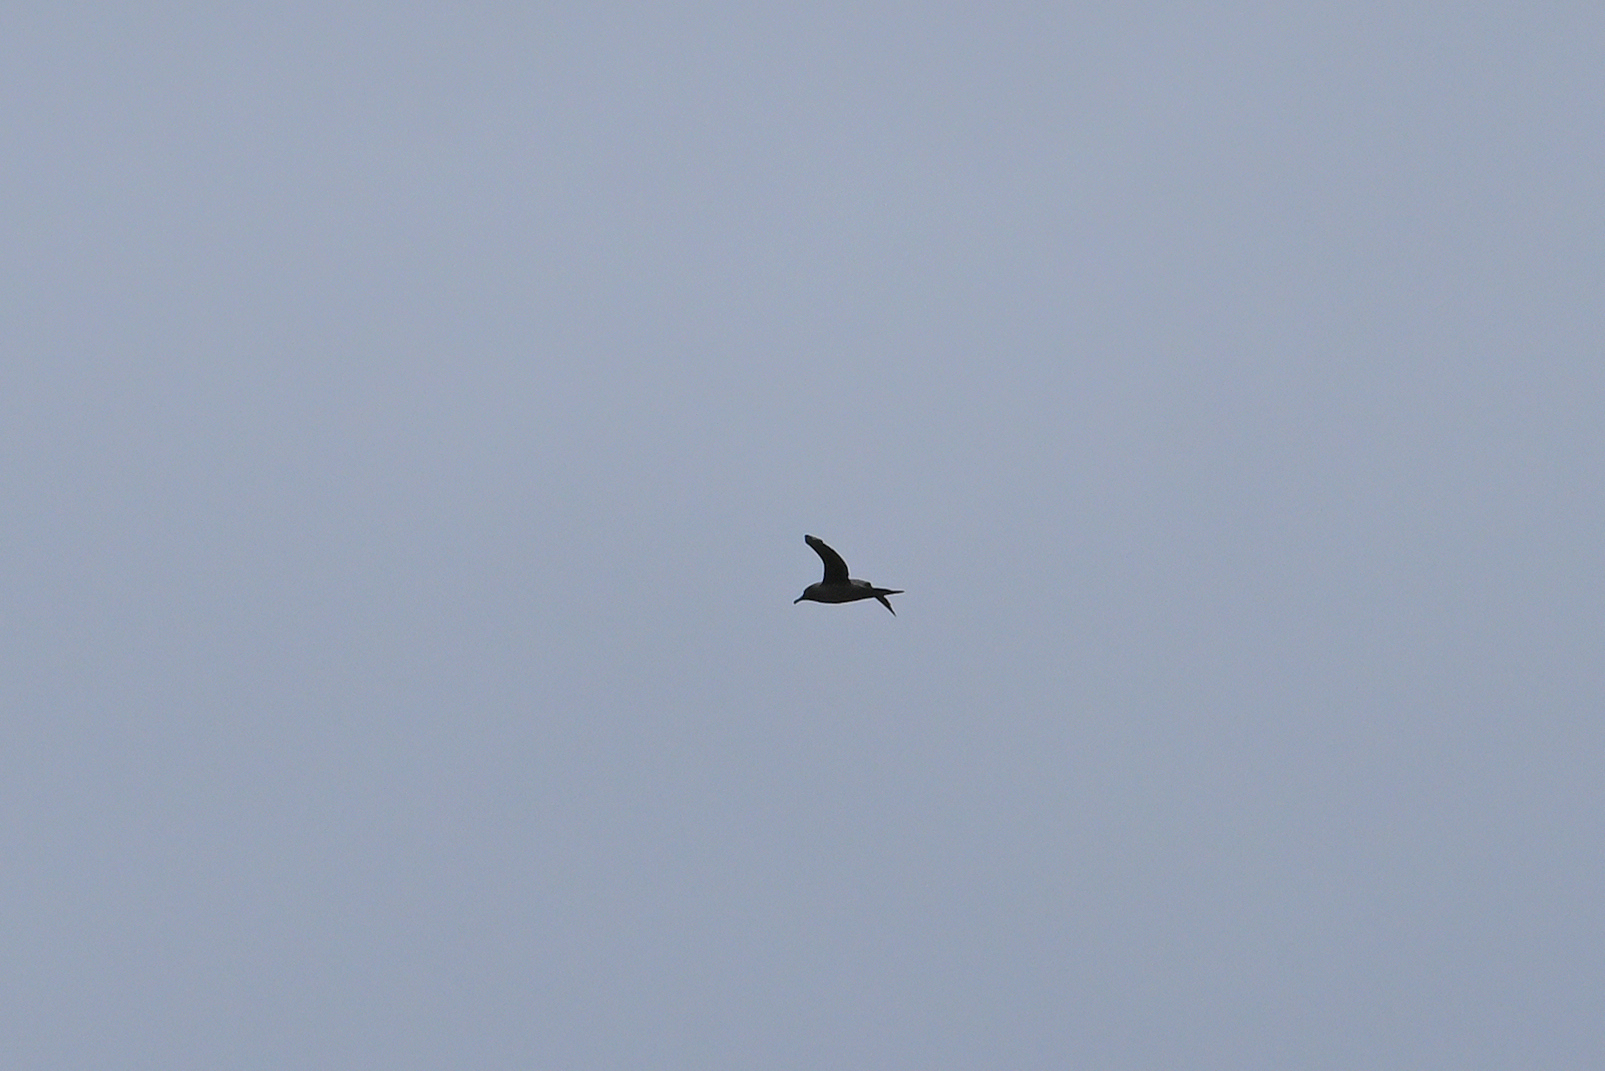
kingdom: Animalia
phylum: Chordata
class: Aves
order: Procellariiformes
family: Diomedeidae
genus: Phoebetria
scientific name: Phoebetria palpebrata
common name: Light-mantled albatross
